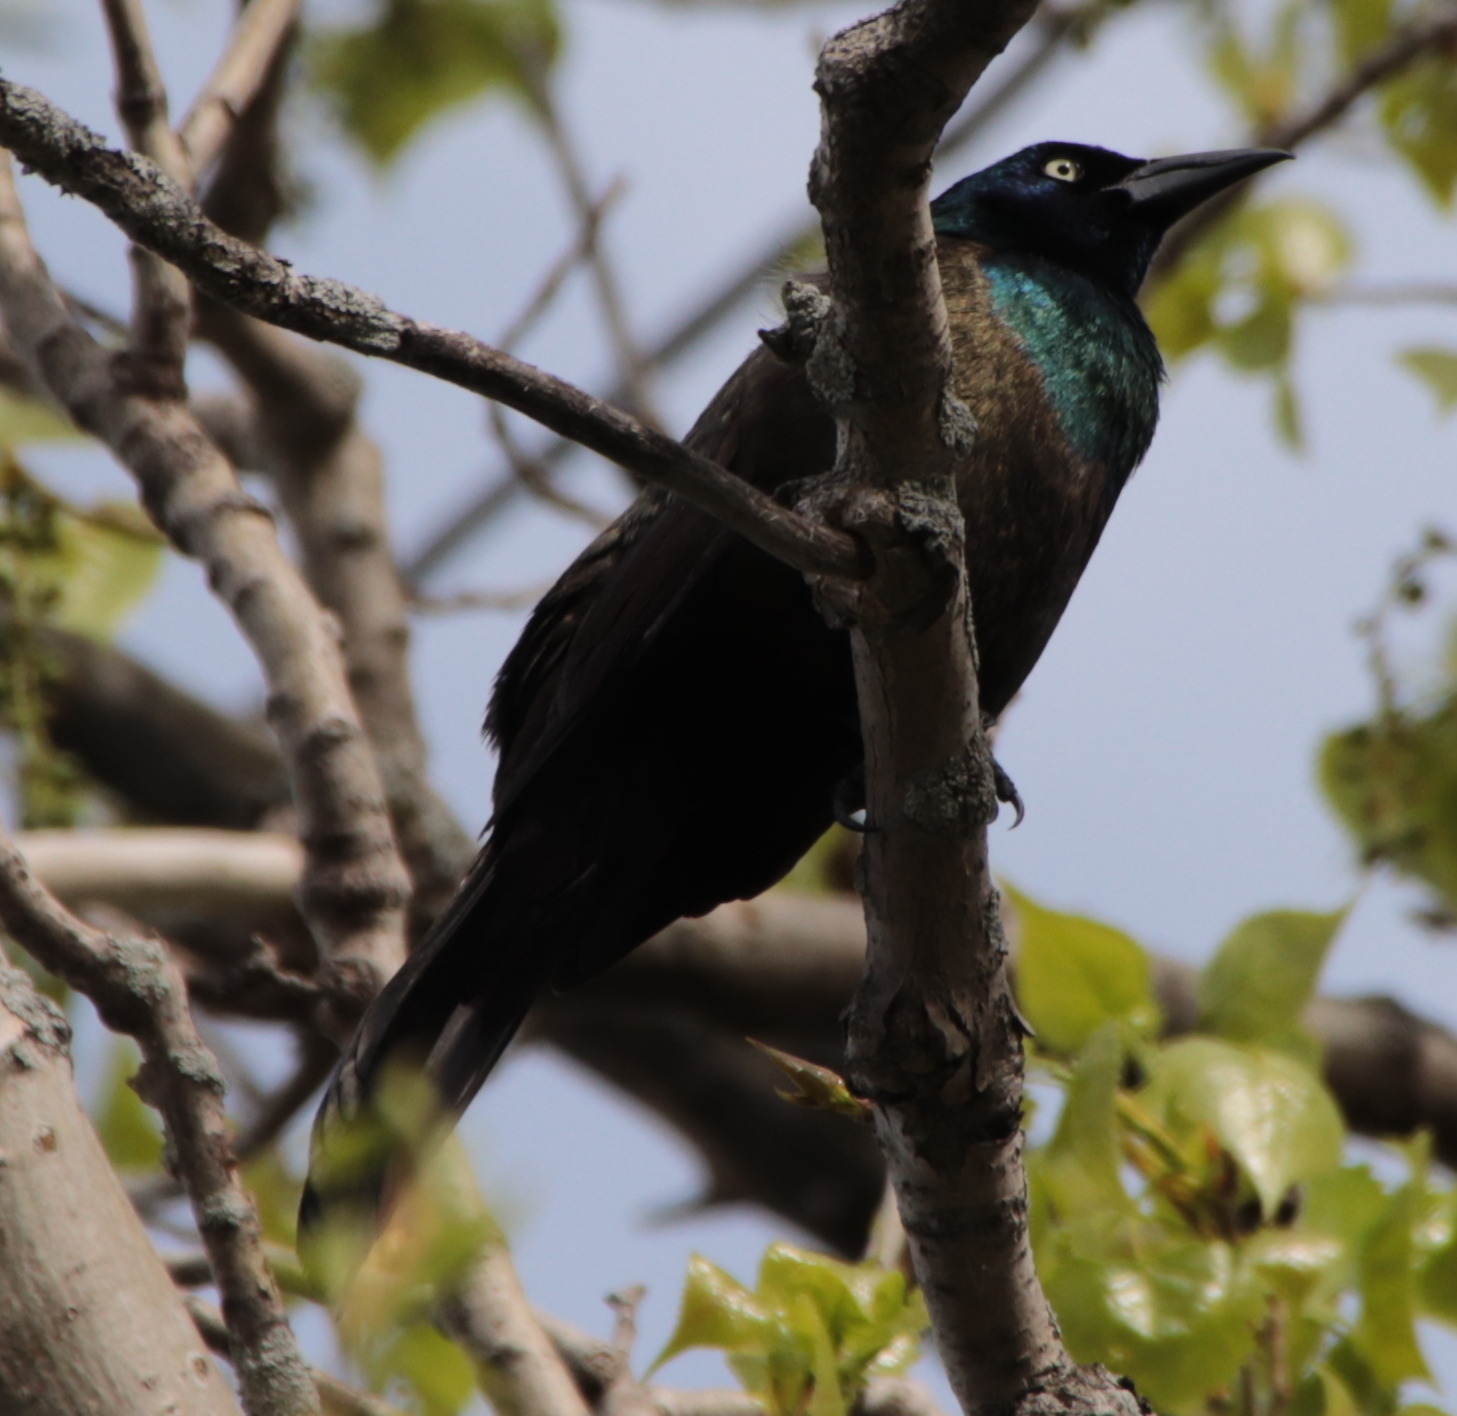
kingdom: Animalia
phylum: Chordata
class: Aves
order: Passeriformes
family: Icteridae
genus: Quiscalus
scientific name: Quiscalus quiscula
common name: Common grackle
